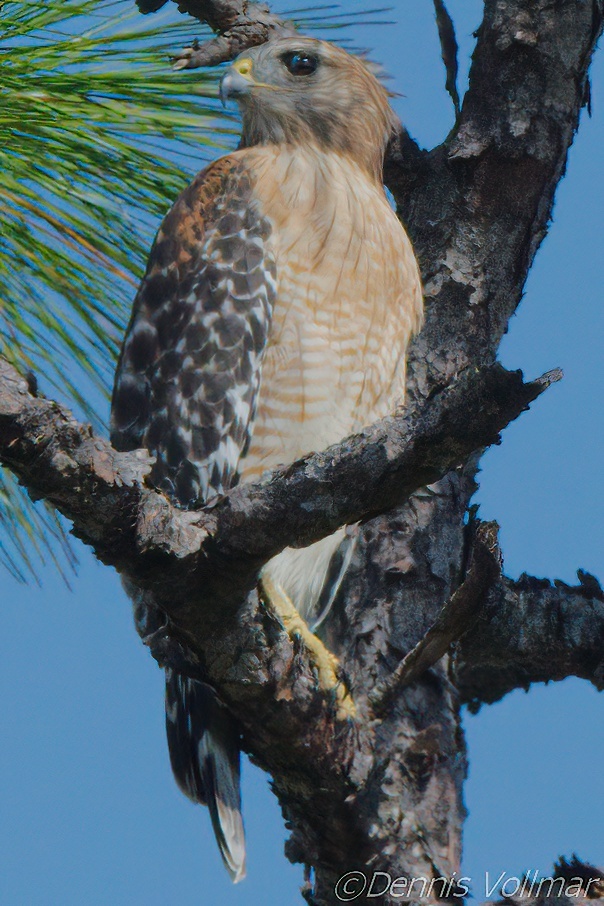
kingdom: Animalia
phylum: Chordata
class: Aves
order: Accipitriformes
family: Accipitridae
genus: Buteo
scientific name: Buteo lineatus
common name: Red-shouldered hawk
